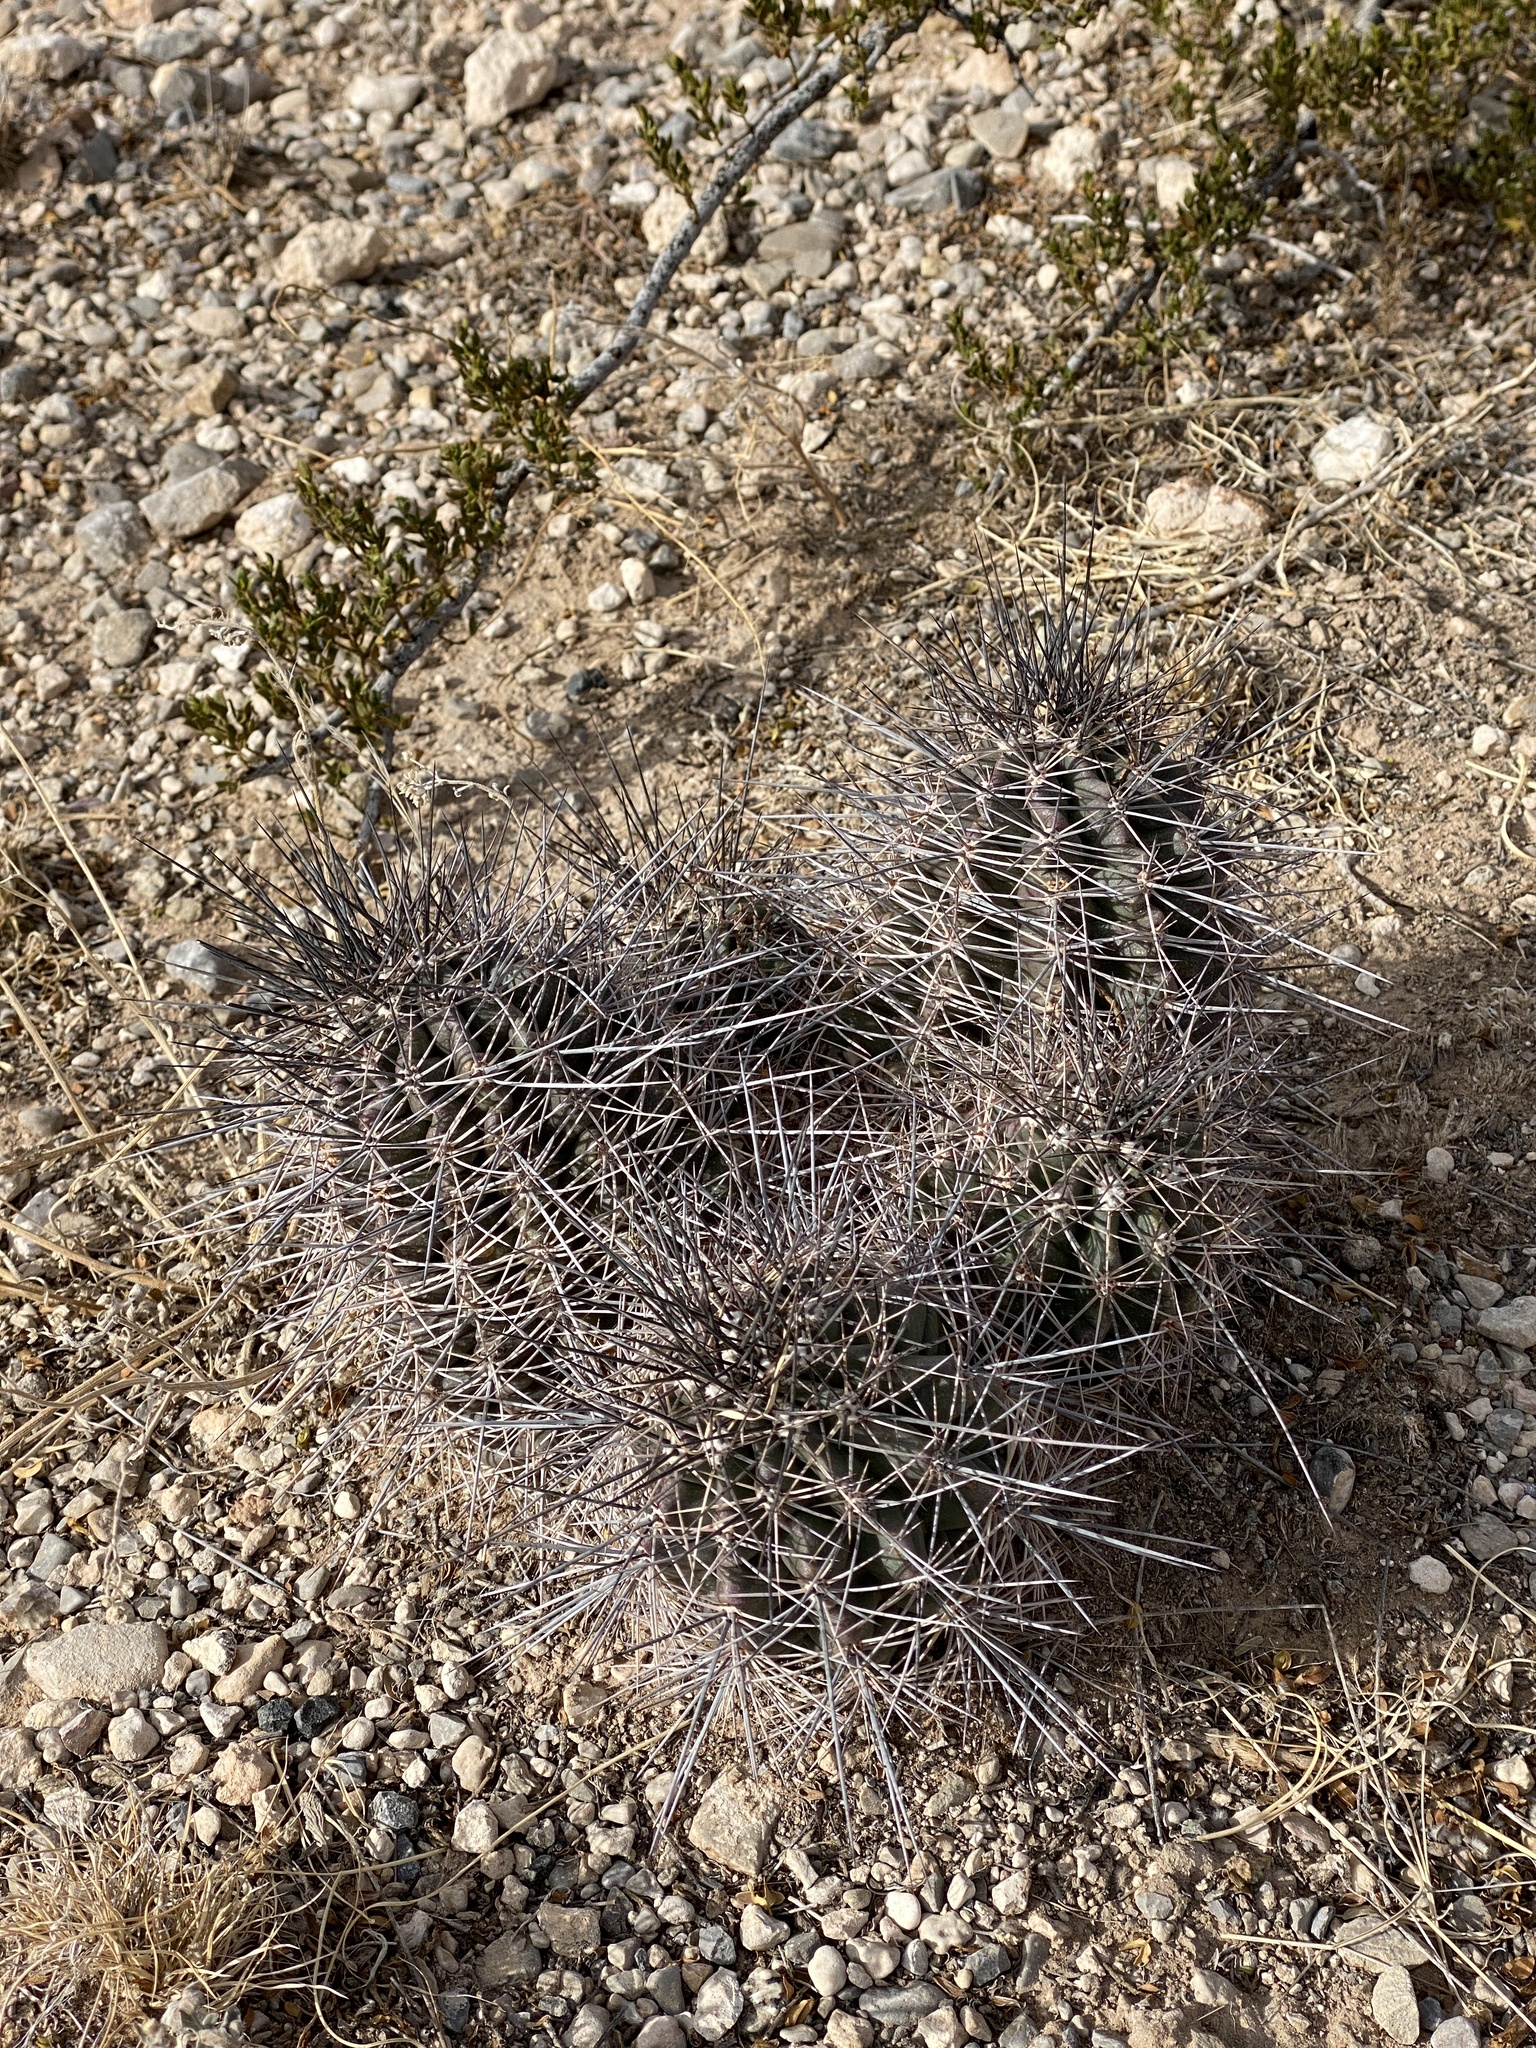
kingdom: Plantae
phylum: Tracheophyta
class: Magnoliopsida
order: Caryophyllales
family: Cactaceae
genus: Echinocereus
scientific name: Echinocereus coccineus
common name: Scarlet hedgehog cactus
